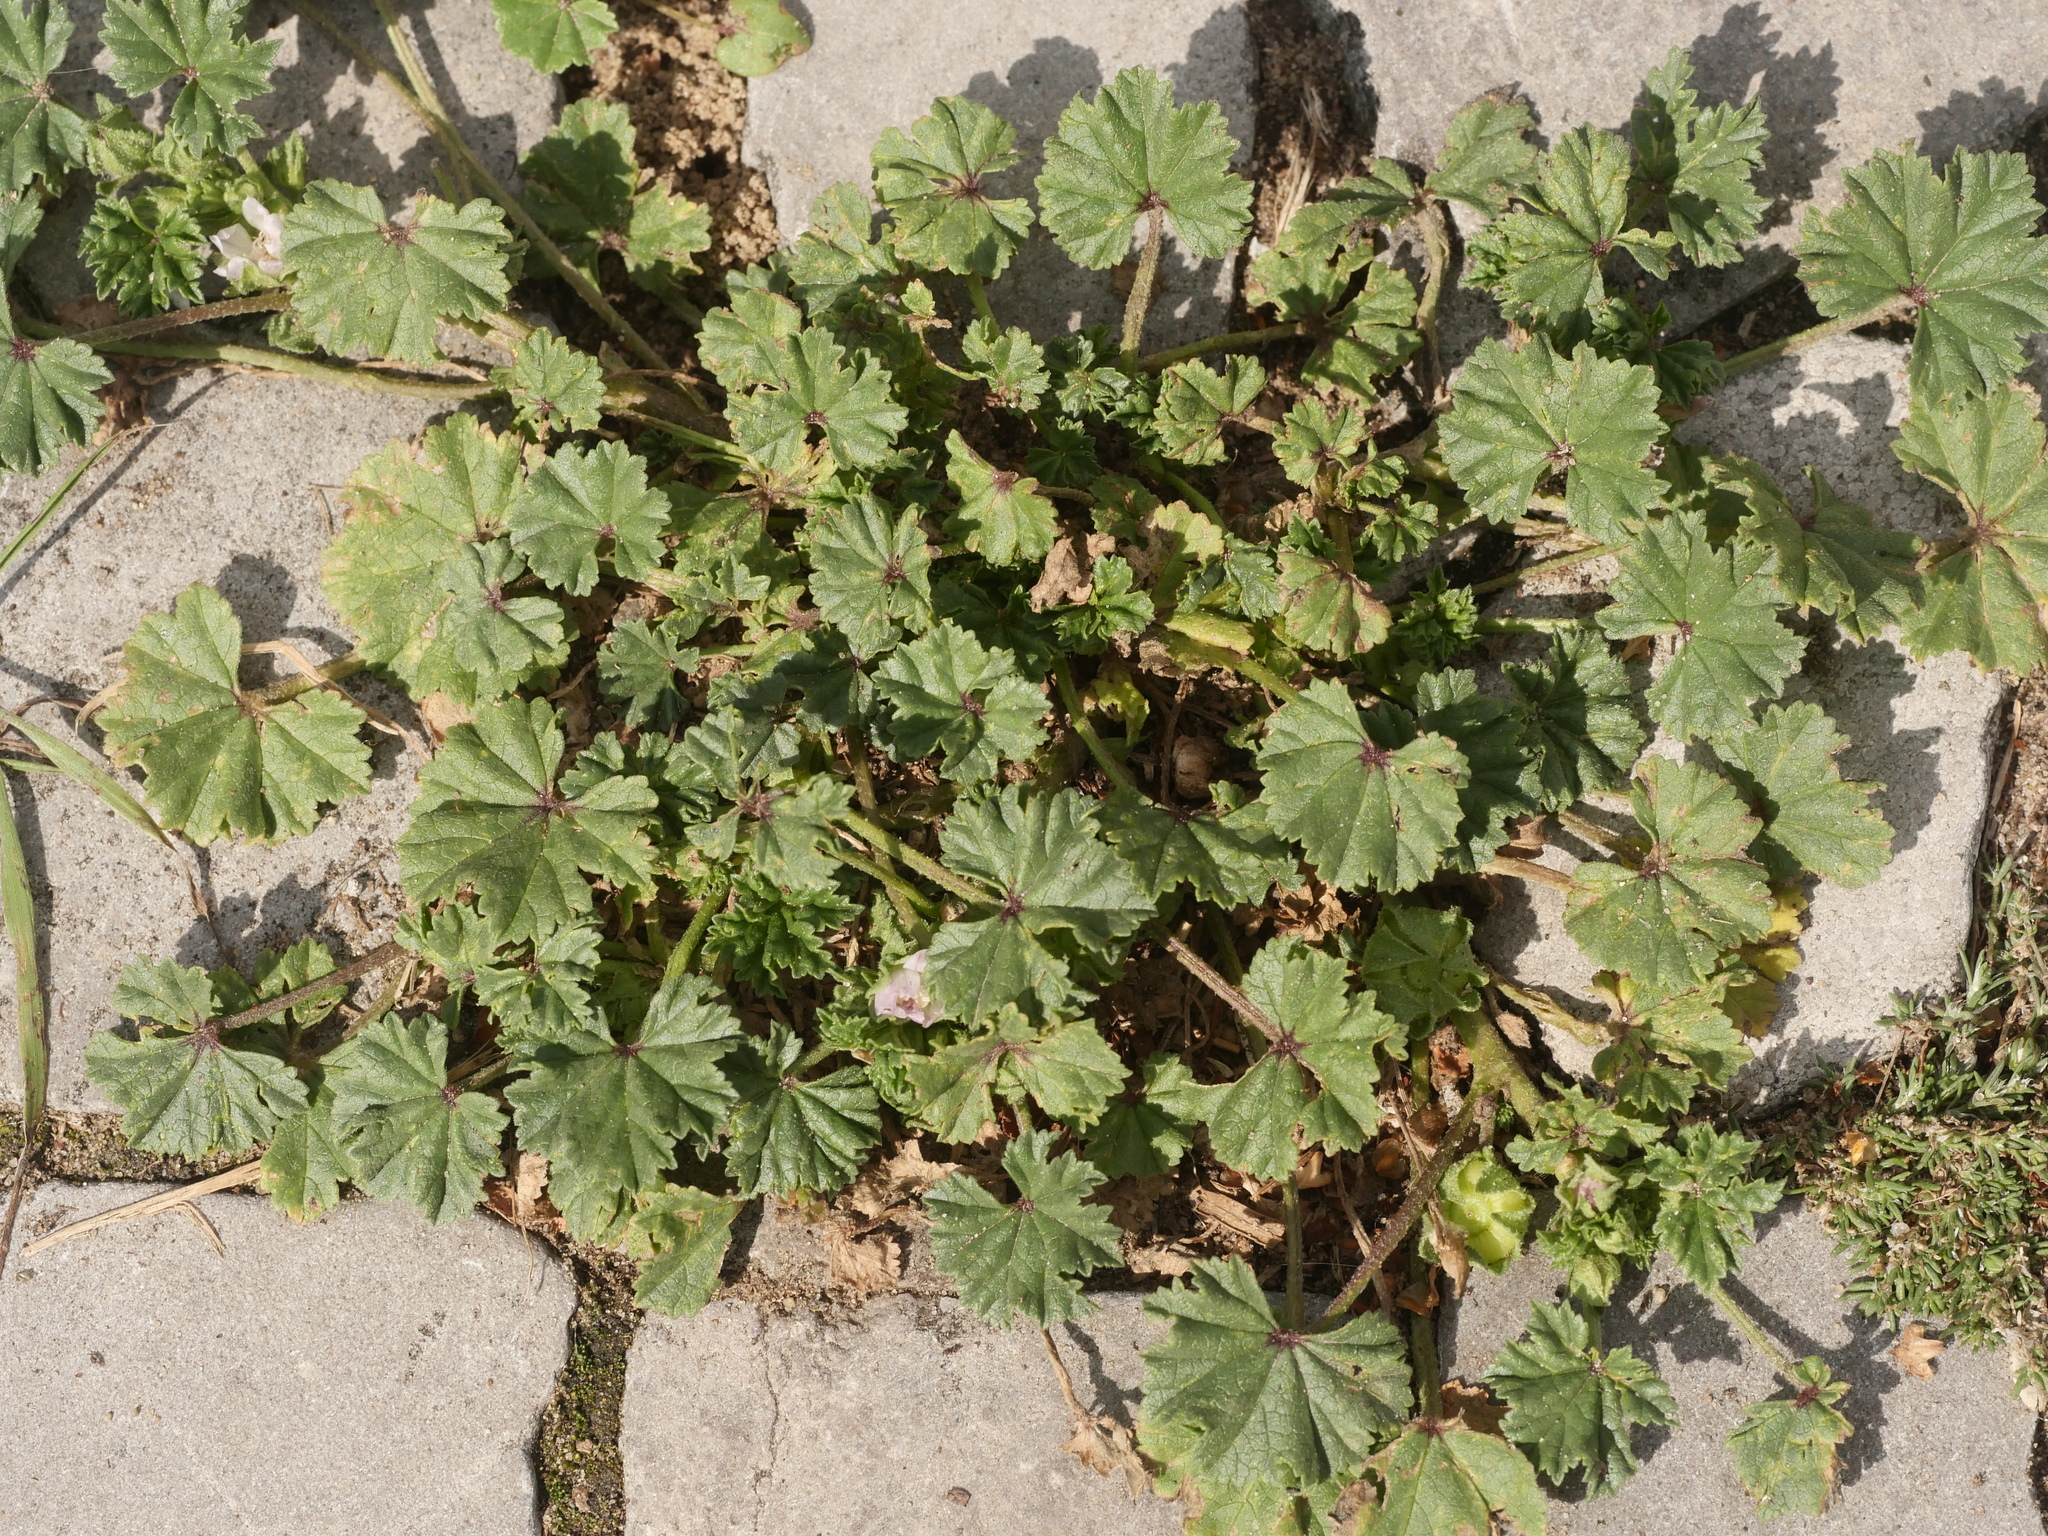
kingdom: Plantae
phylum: Tracheophyta
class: Magnoliopsida
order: Malvales
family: Malvaceae
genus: Malva
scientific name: Malva neglecta
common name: Common mallow
